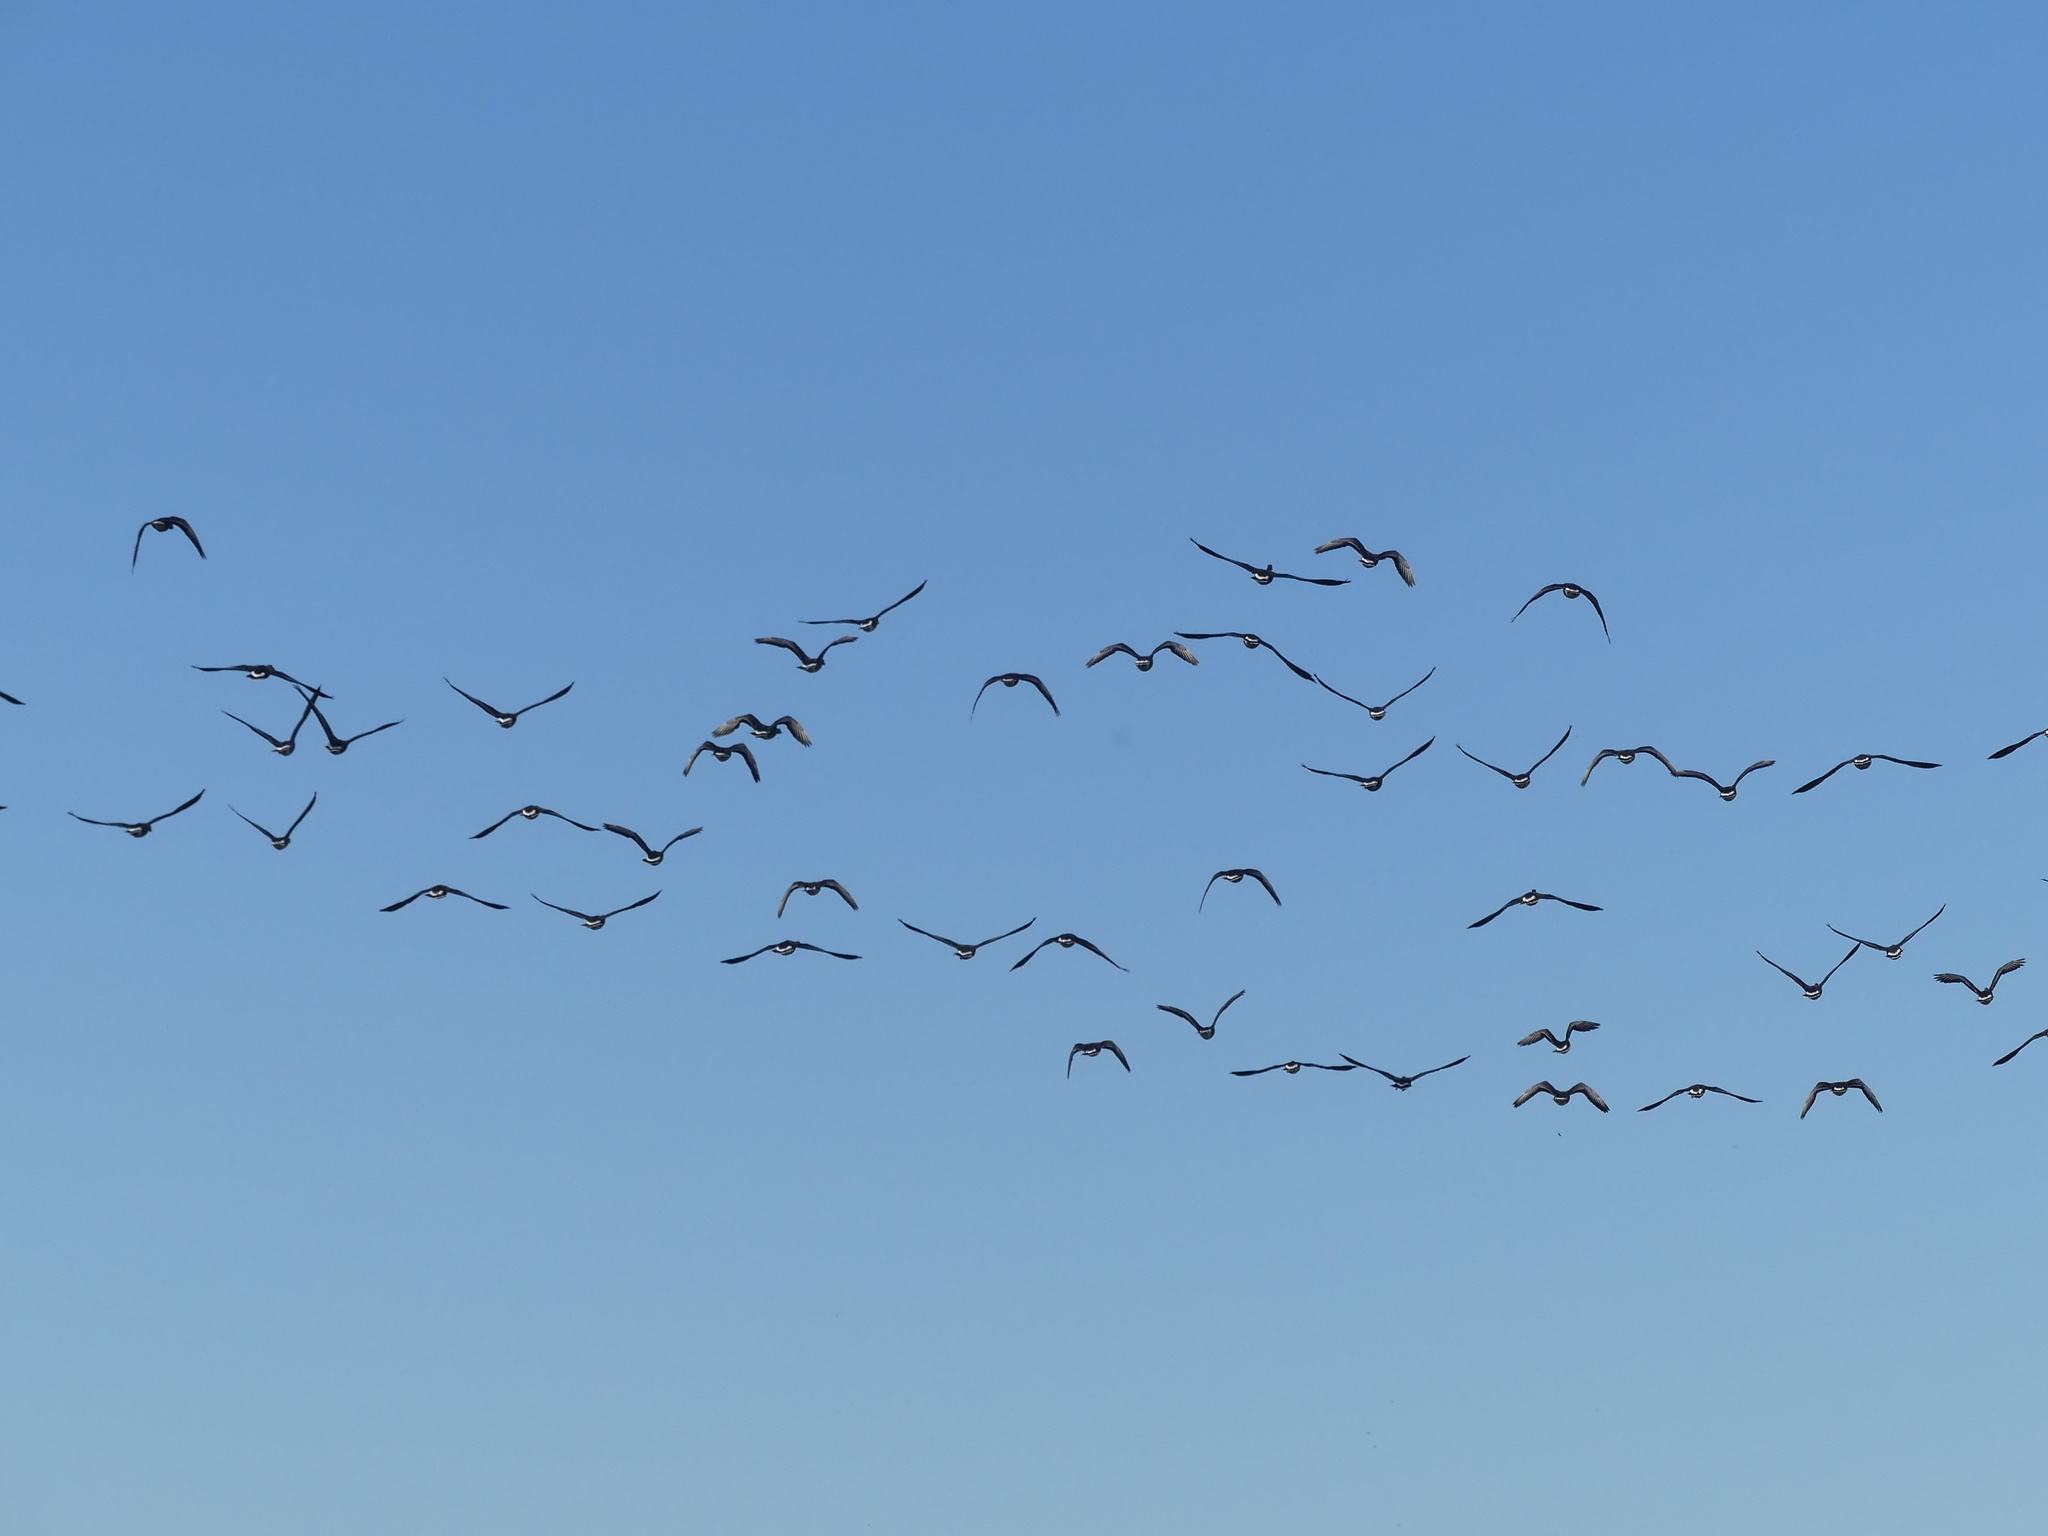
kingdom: Animalia
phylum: Chordata
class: Aves
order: Anseriformes
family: Anatidae
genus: Anser
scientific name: Anser albifrons
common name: Greater white-fronted goose
